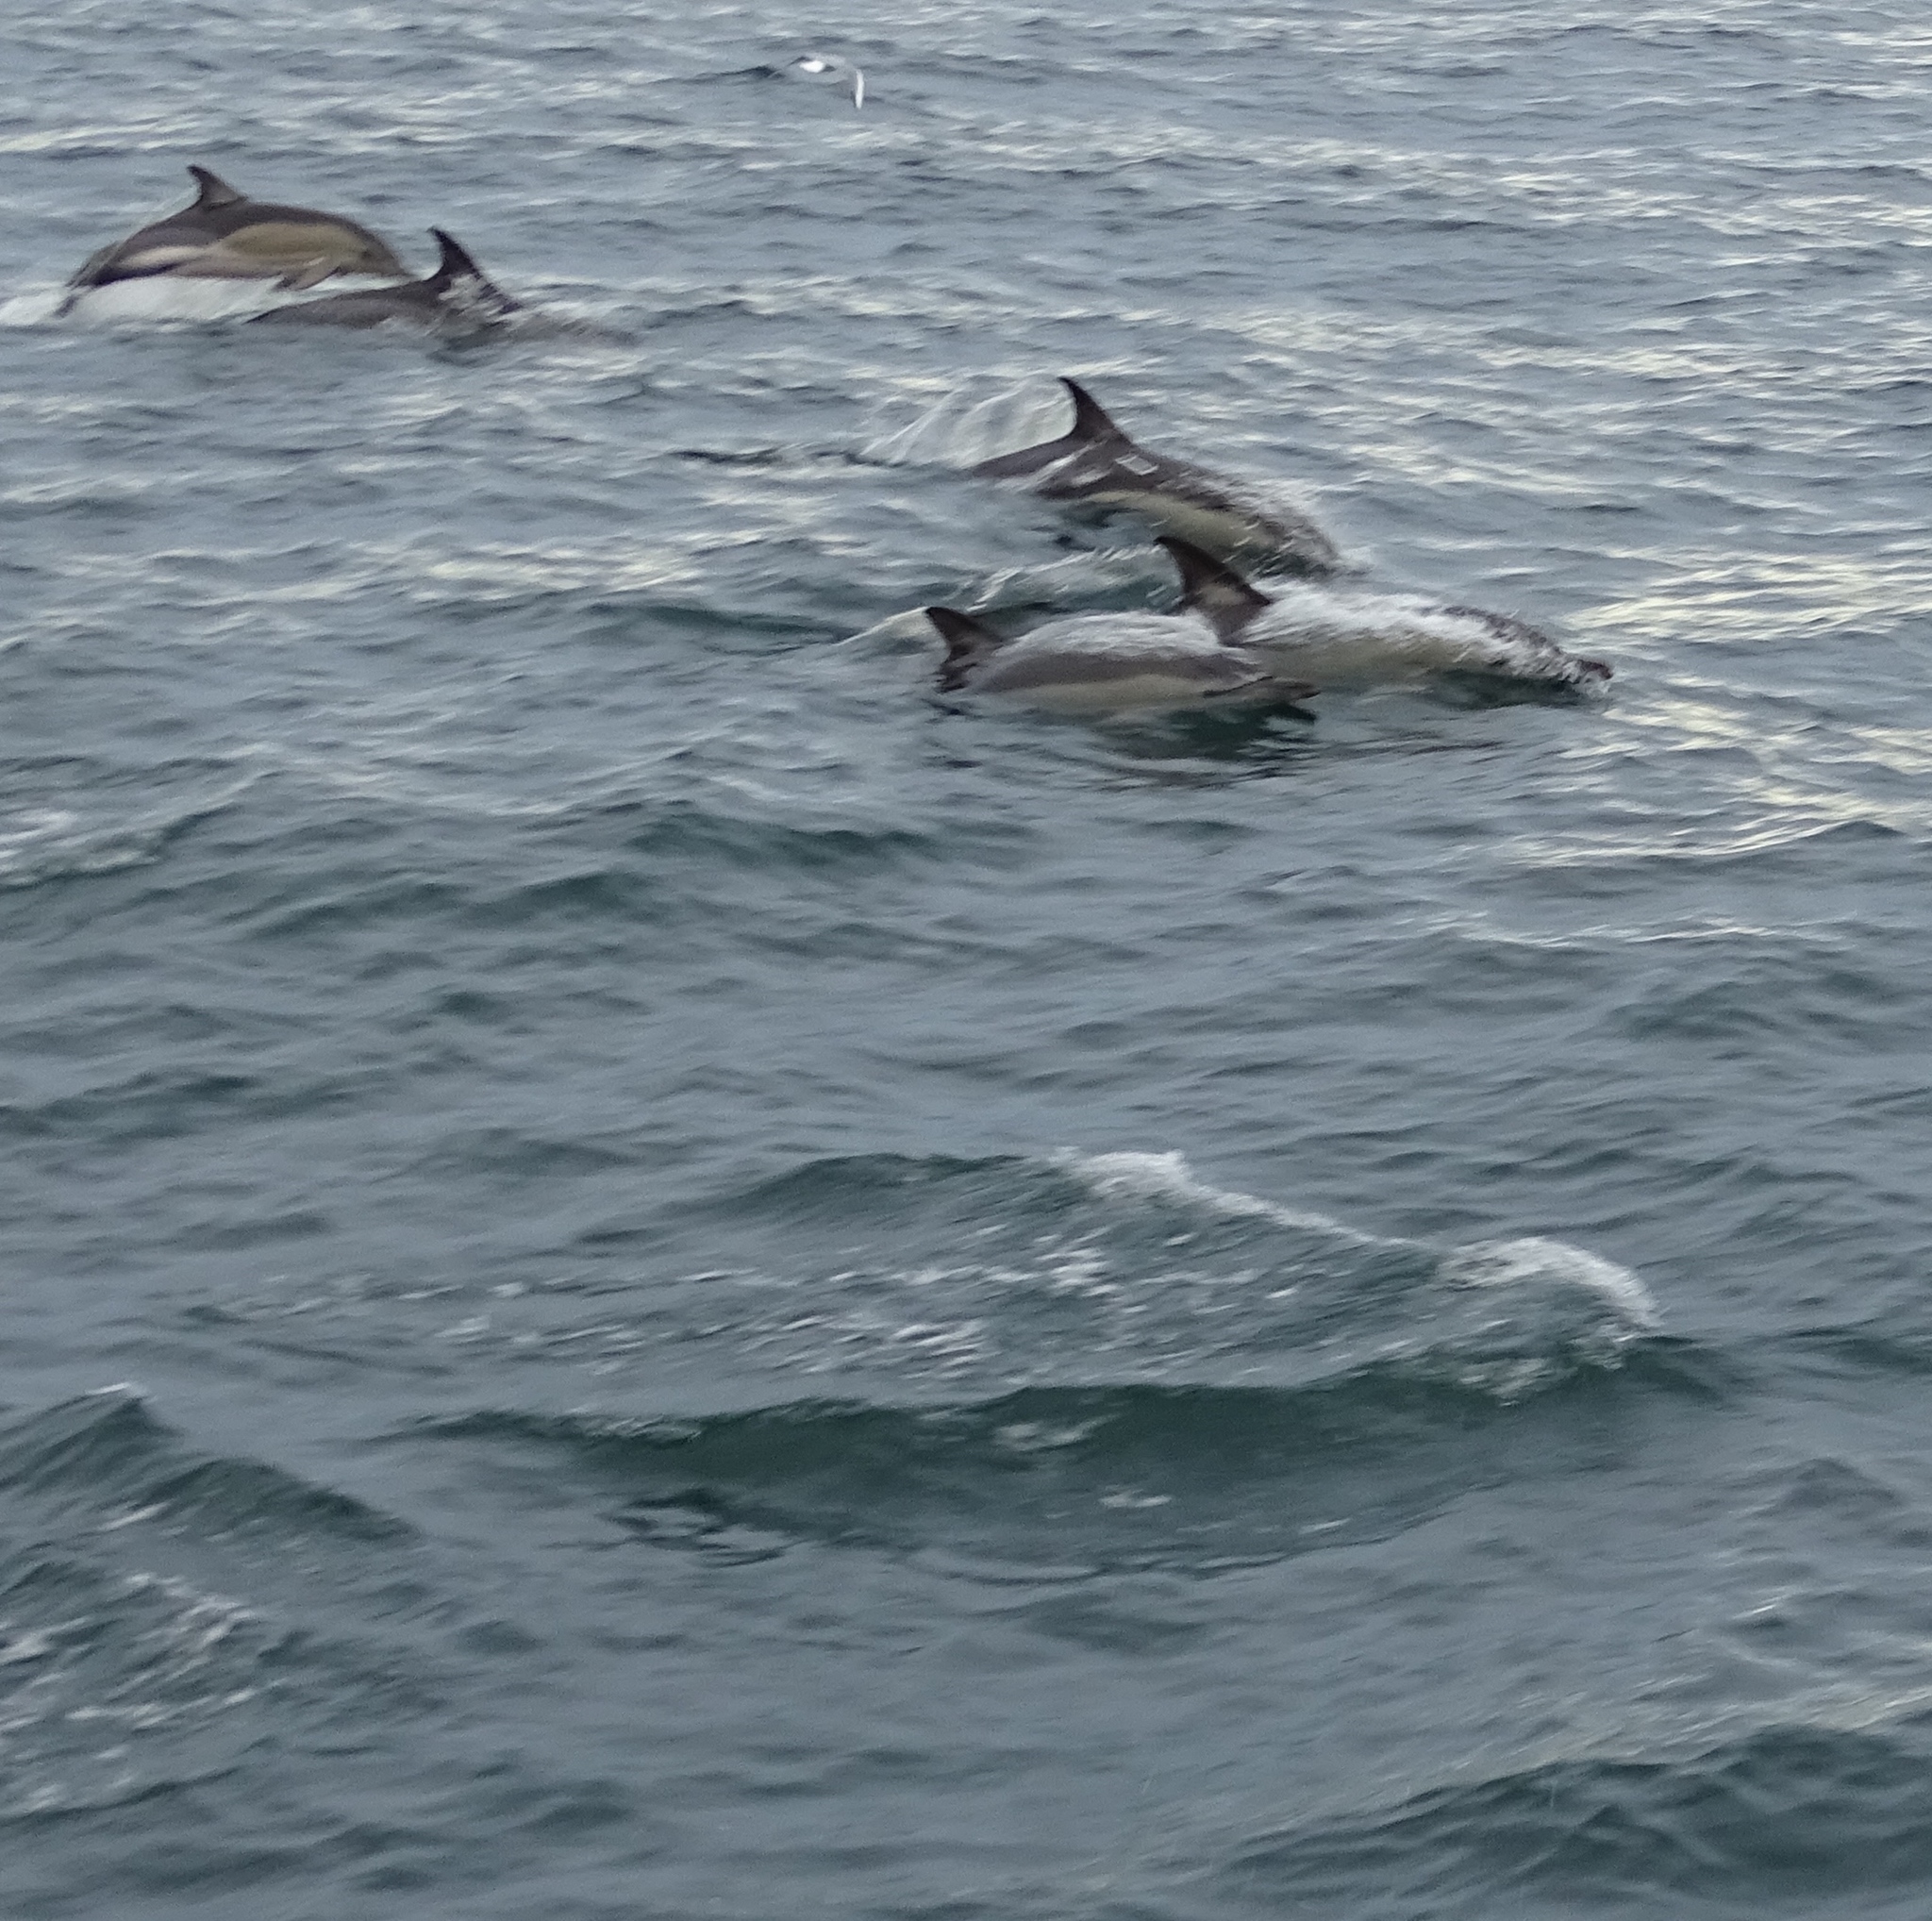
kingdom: Animalia
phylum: Chordata
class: Mammalia
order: Cetacea
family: Delphinidae
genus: Delphinus
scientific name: Delphinus delphis
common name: Common dolphin
